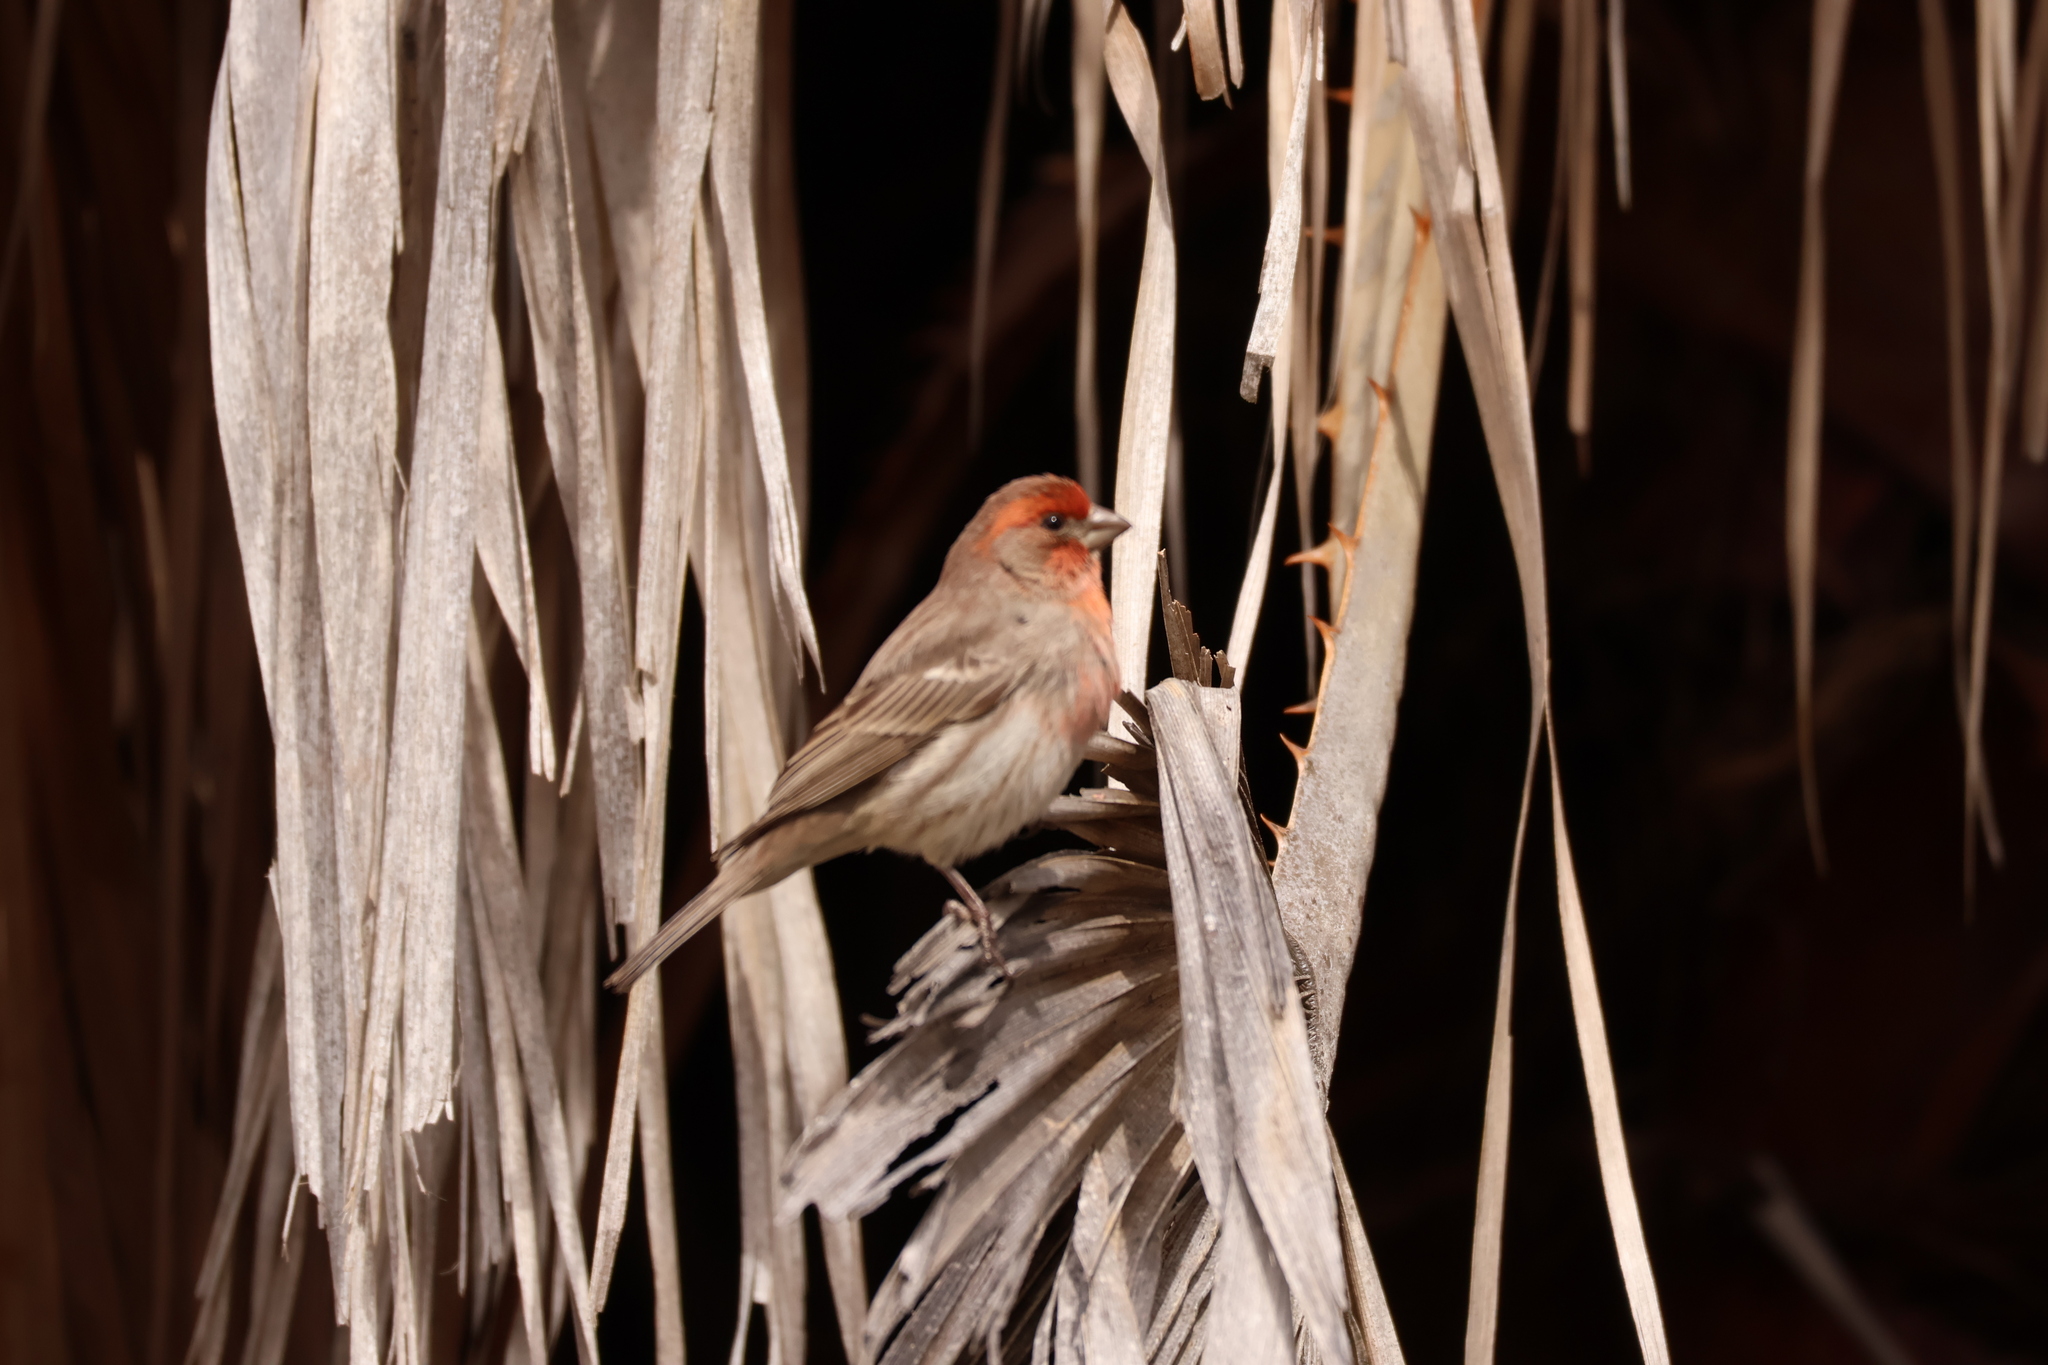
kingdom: Animalia
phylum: Chordata
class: Aves
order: Passeriformes
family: Fringillidae
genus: Haemorhous
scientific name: Haemorhous mexicanus
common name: House finch
